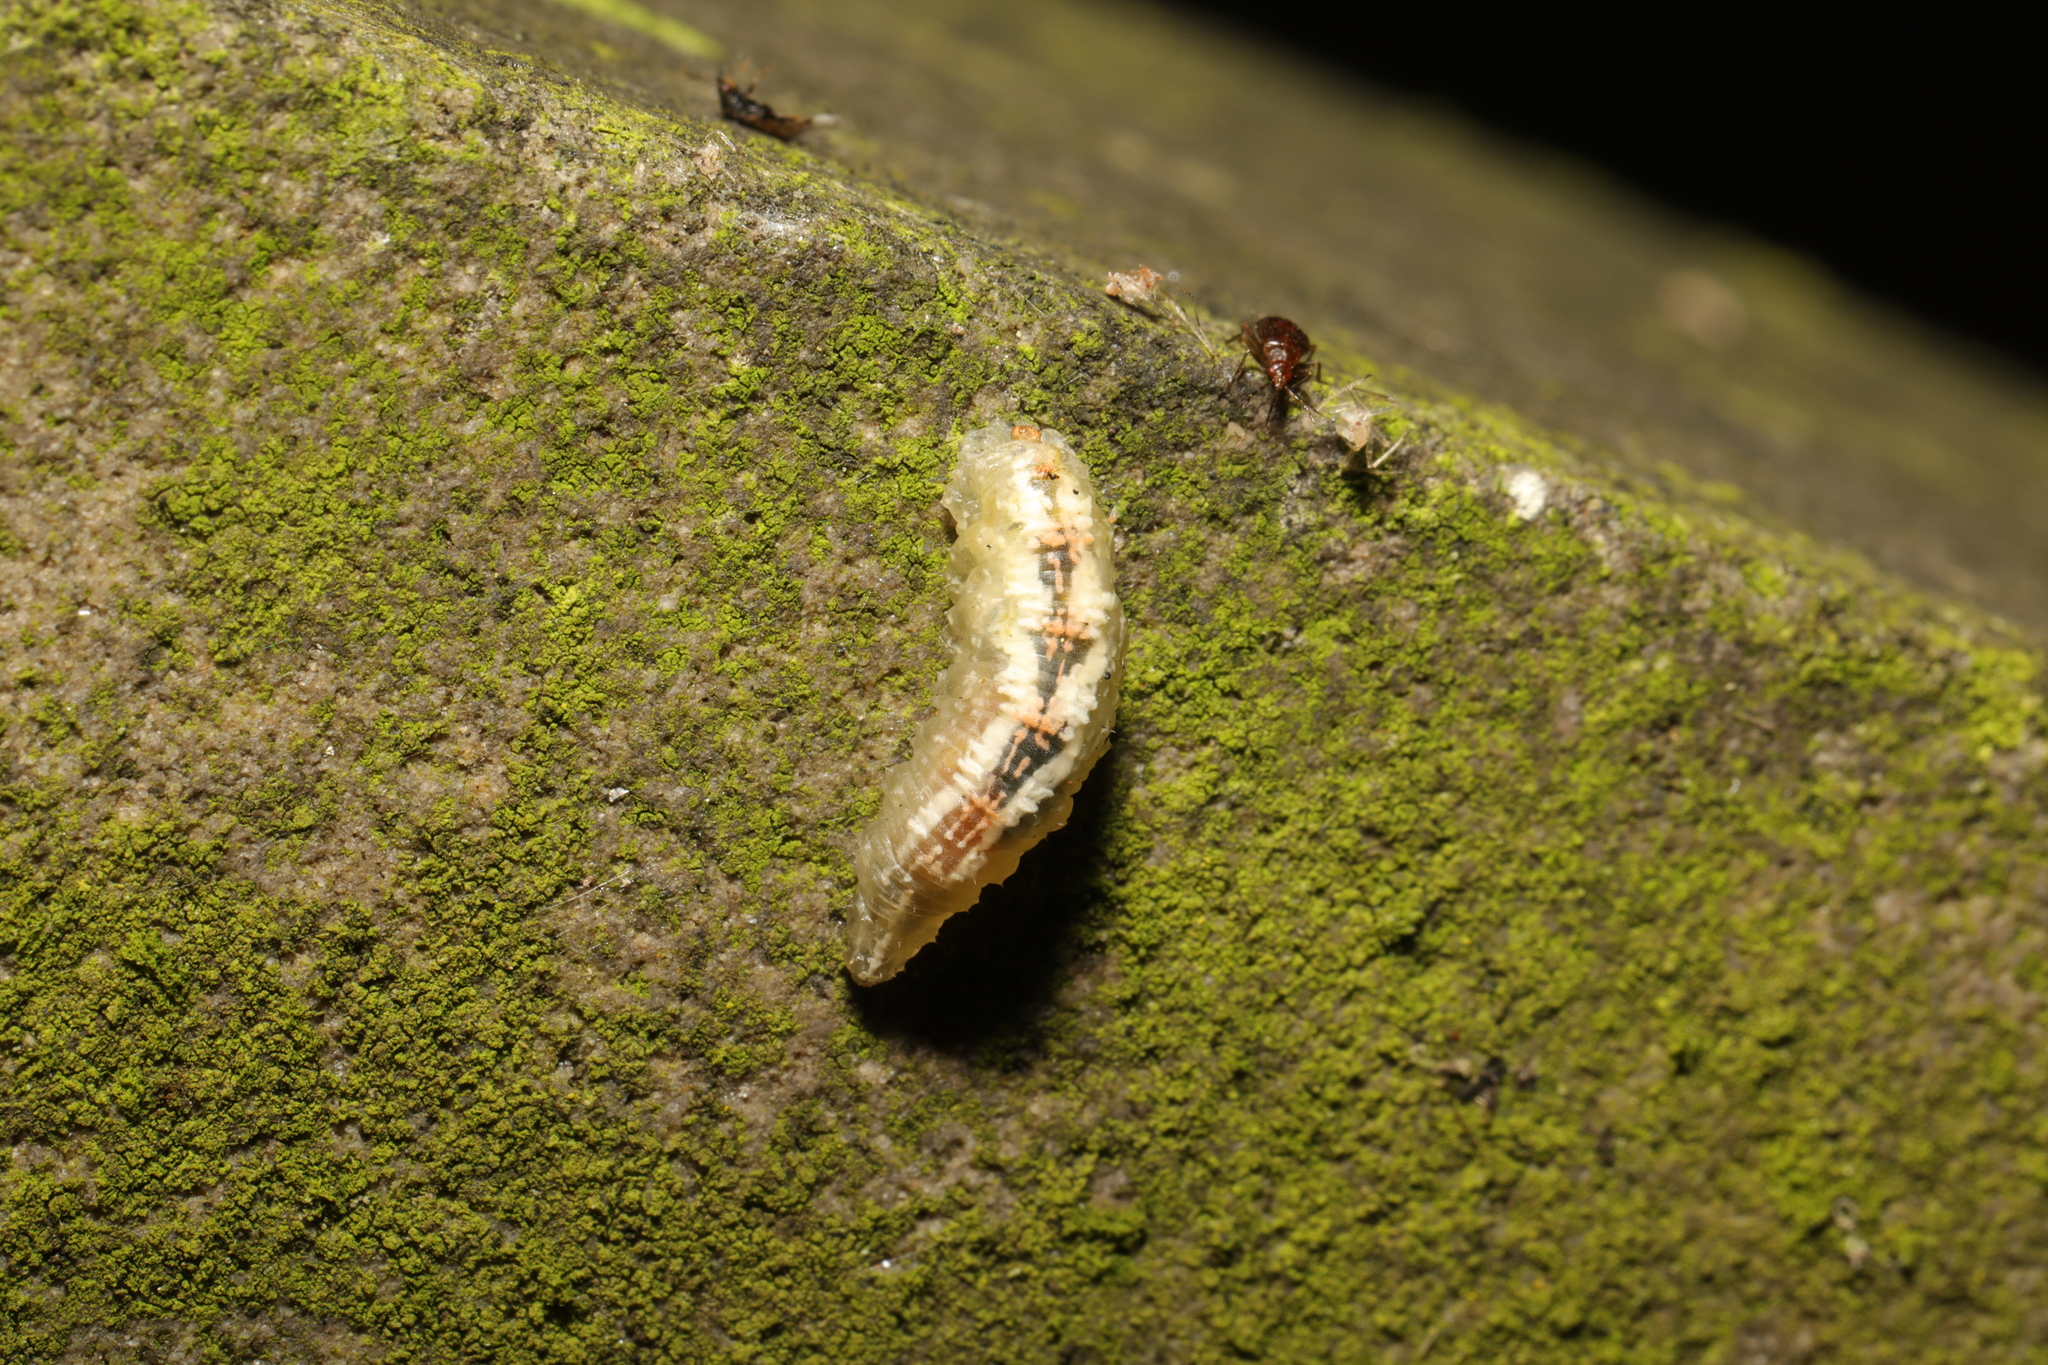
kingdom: Animalia
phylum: Arthropoda
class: Insecta
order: Diptera
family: Syrphidae
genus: Syrphus
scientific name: Syrphus
